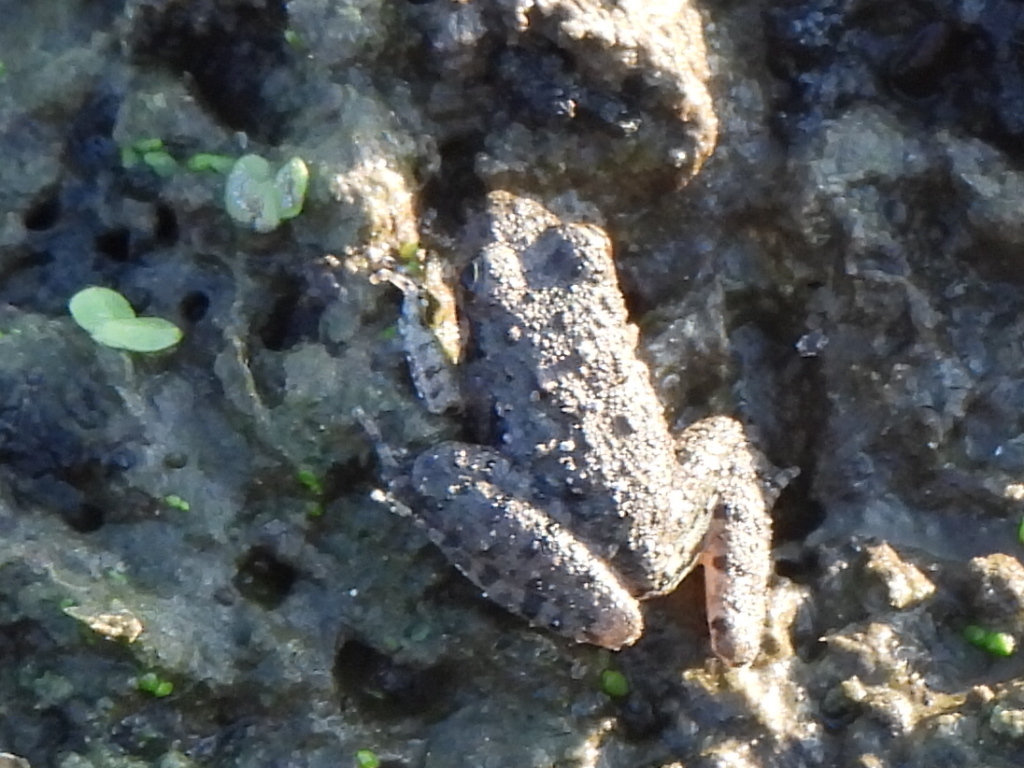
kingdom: Animalia
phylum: Chordata
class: Amphibia
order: Anura
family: Hylidae
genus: Acris
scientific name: Acris blanchardi
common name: Blanchard's cricket frog
